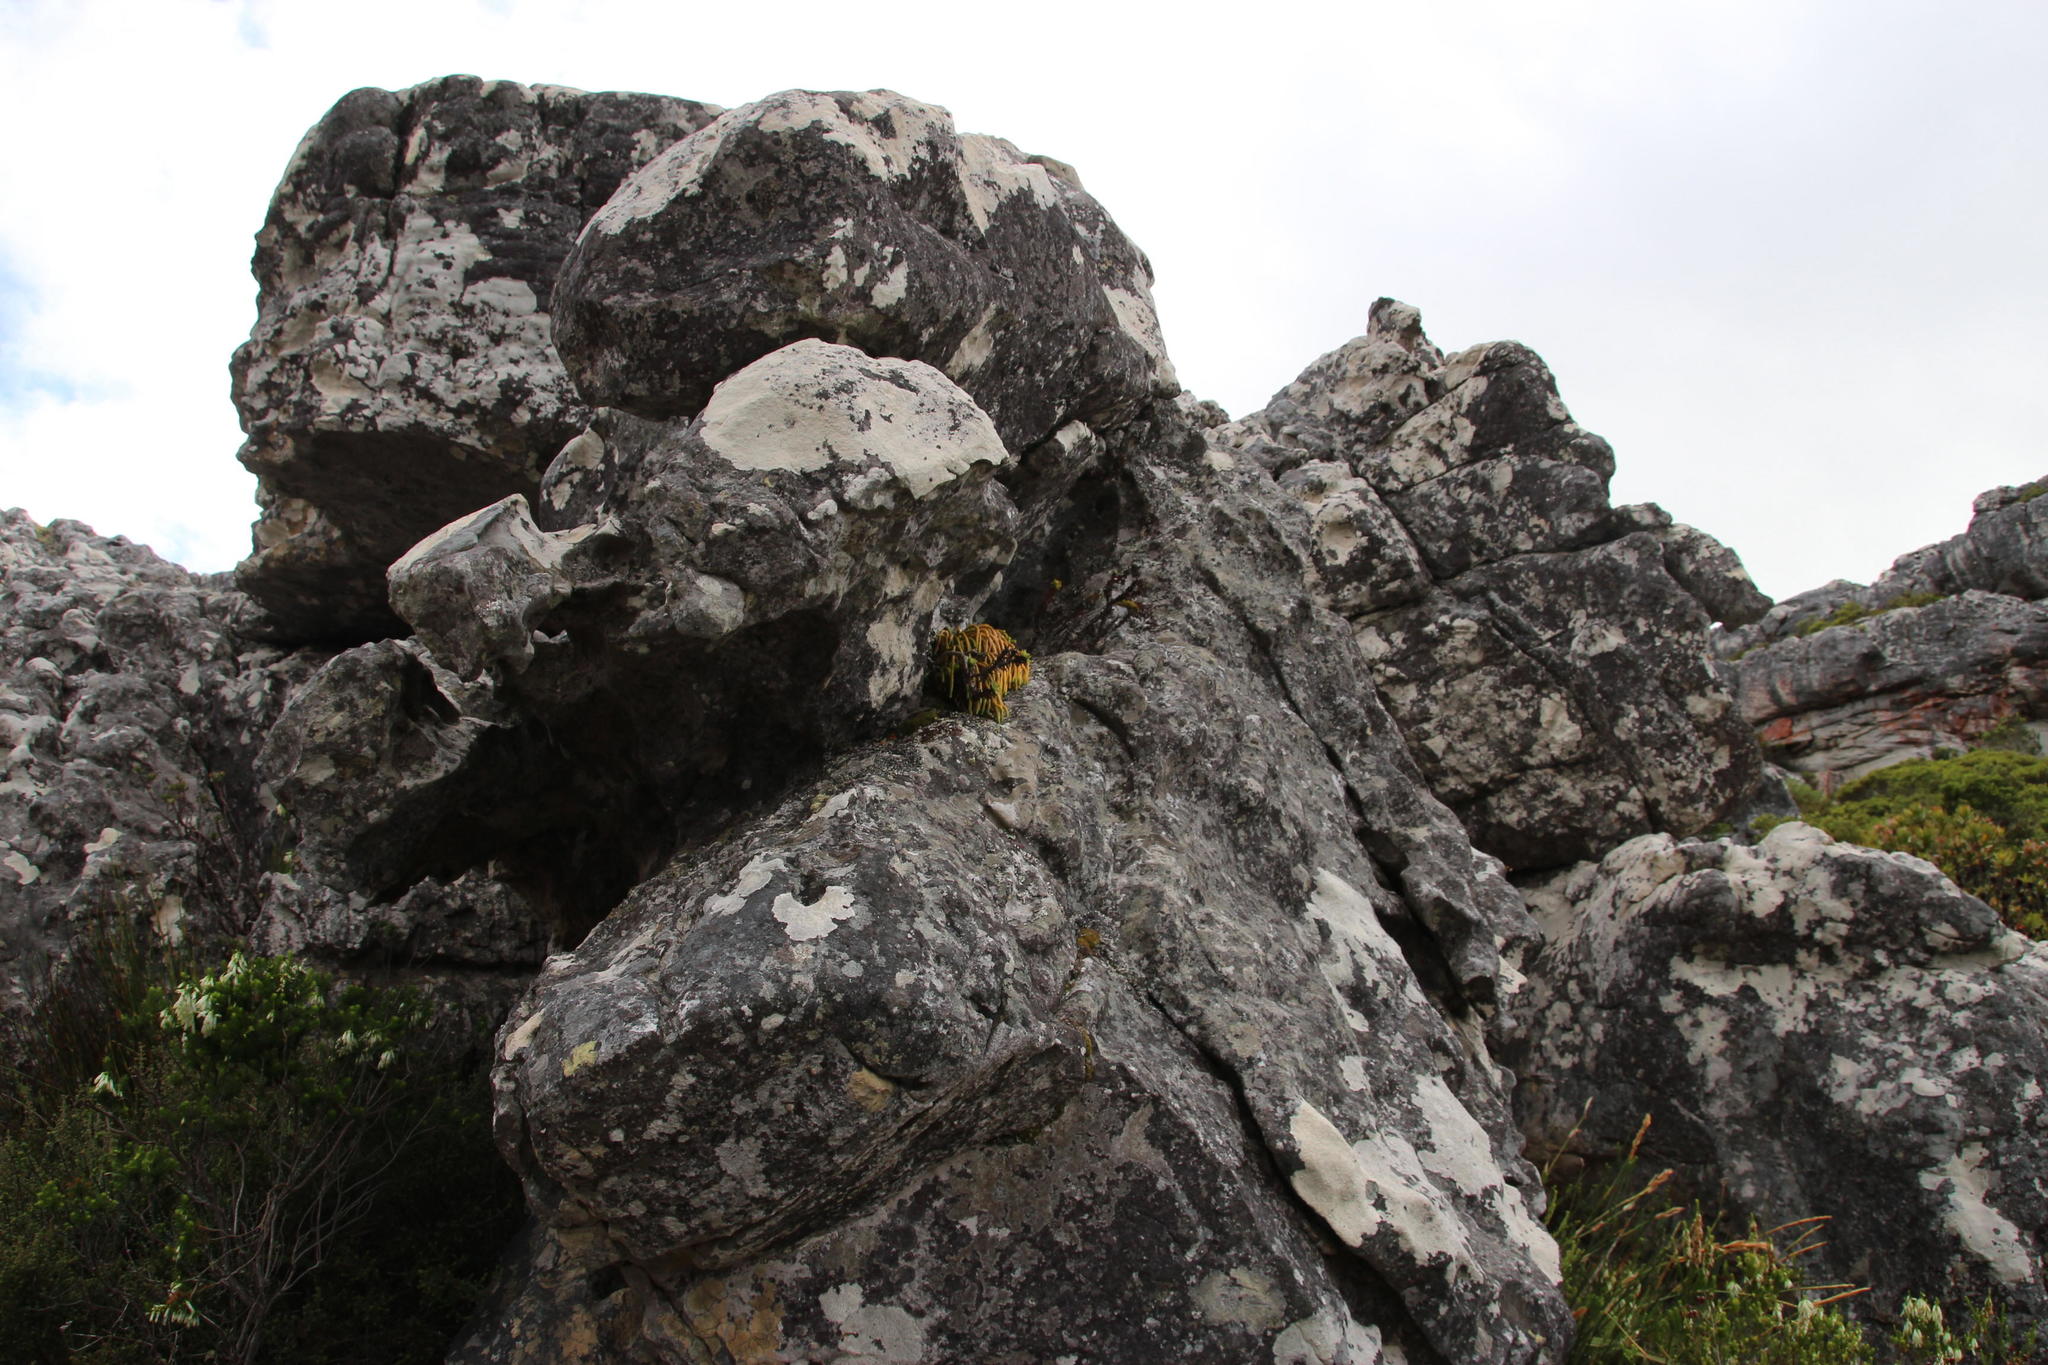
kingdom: Plantae
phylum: Tracheophyta
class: Lycopodiopsida
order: Lycopodiales
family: Lycopodiaceae
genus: Phlegmariurus
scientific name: Phlegmariurus gnidioides
